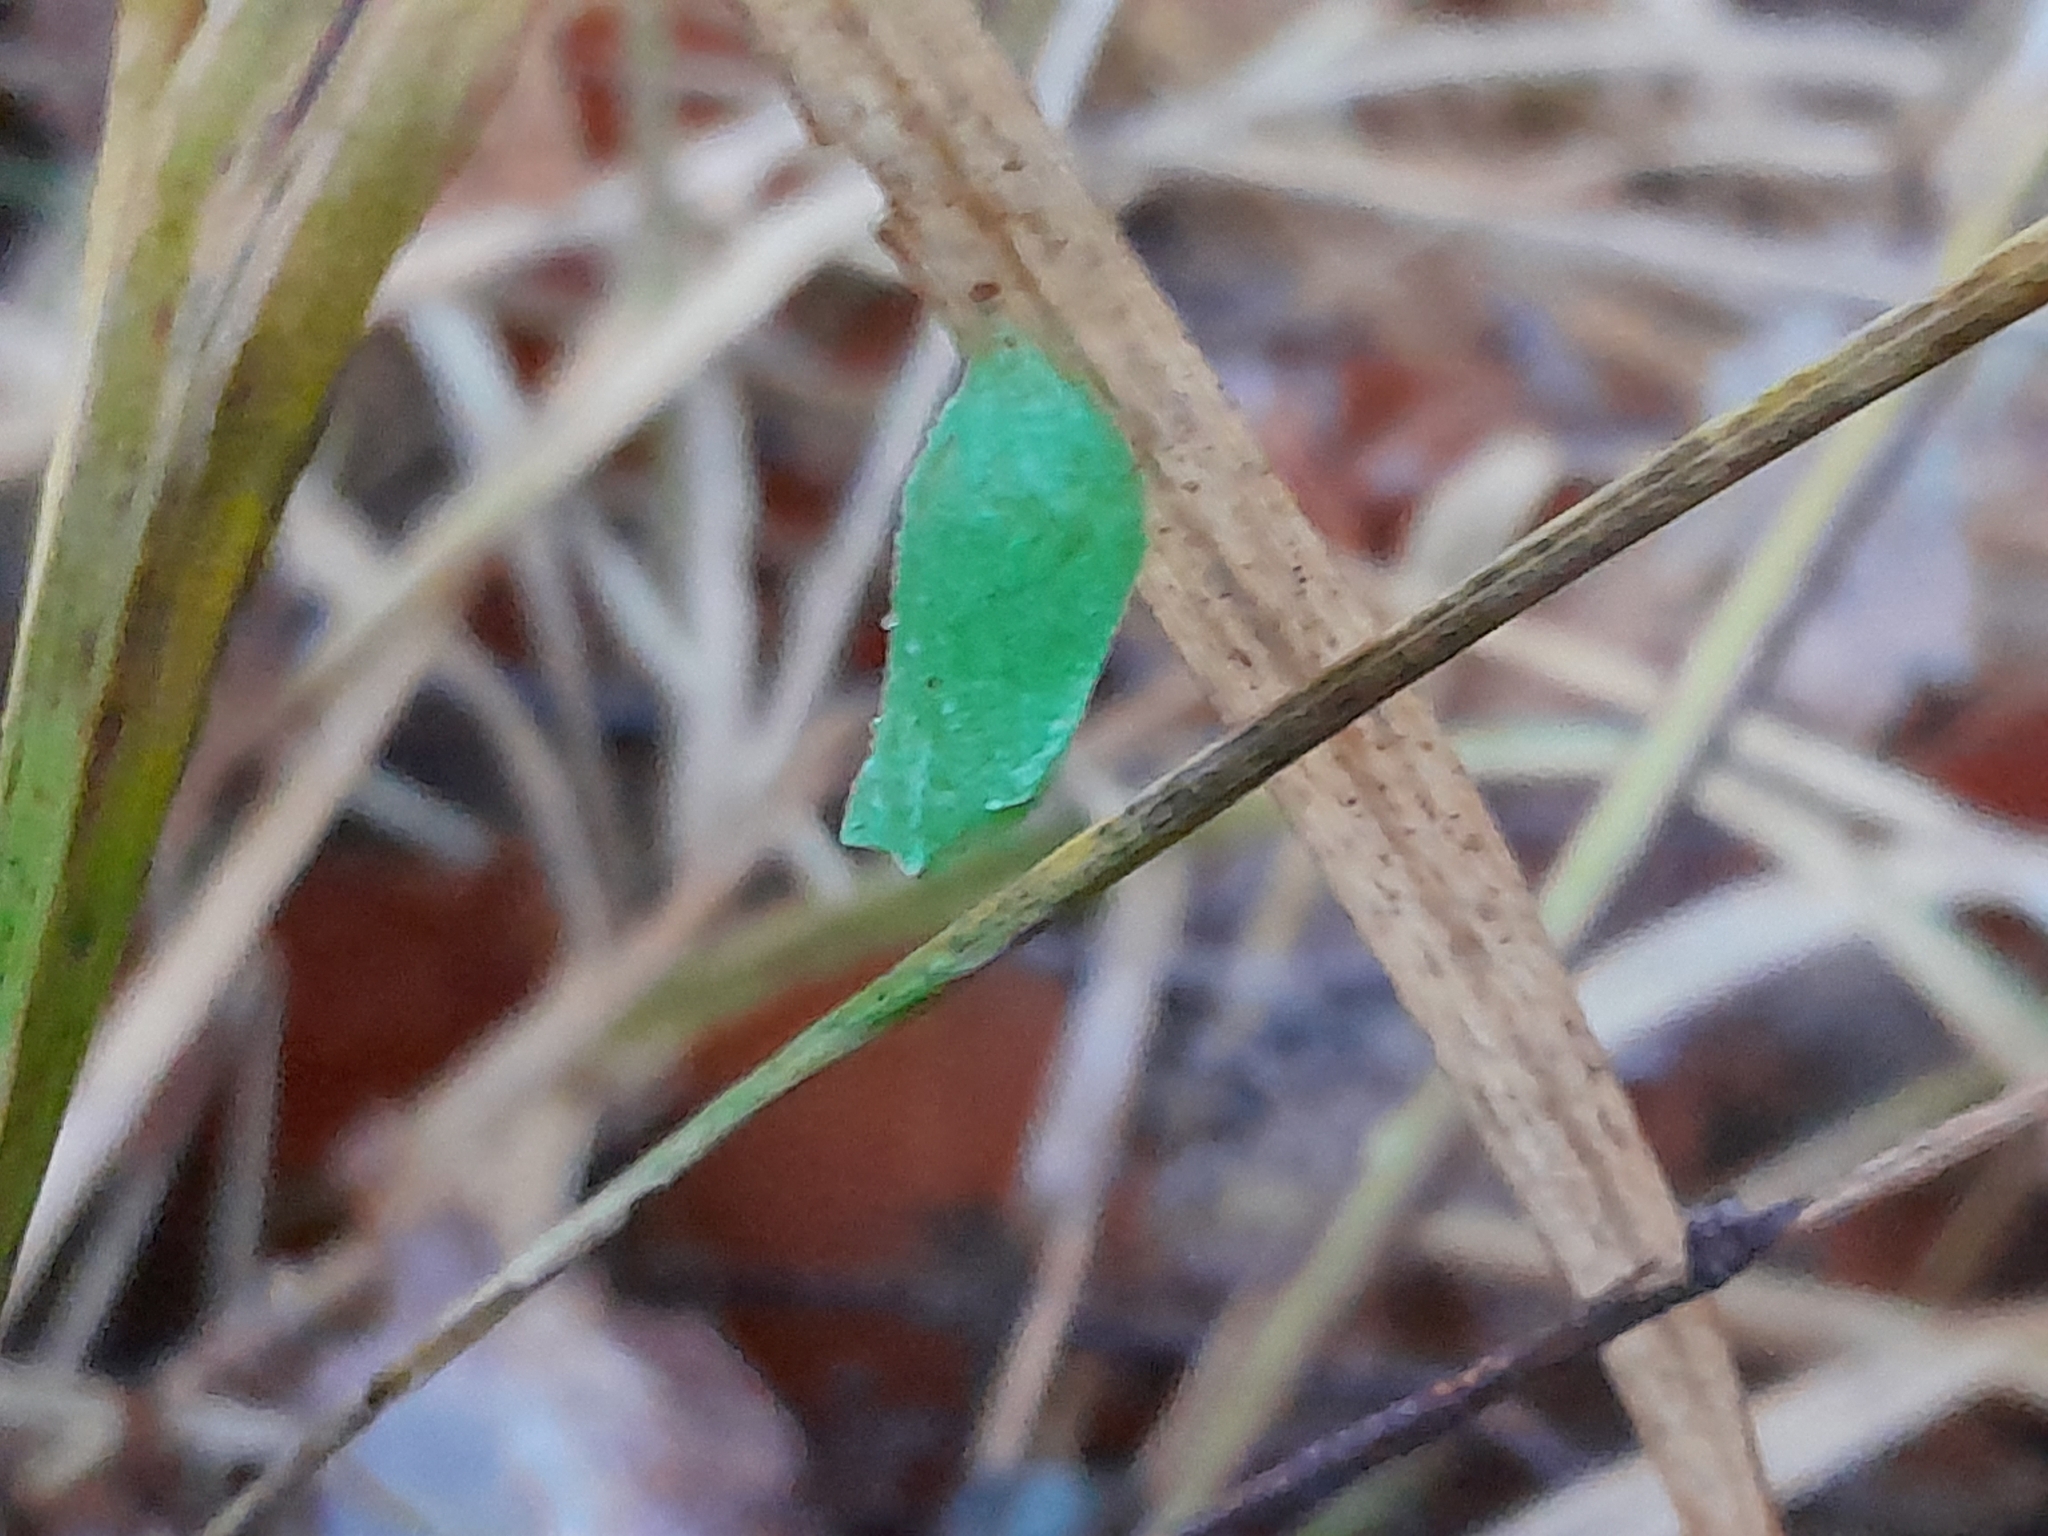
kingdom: Animalia
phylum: Arthropoda
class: Insecta
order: Lepidoptera
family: Nymphalidae
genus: Pararge
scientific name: Pararge aegeria
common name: Speckled wood
